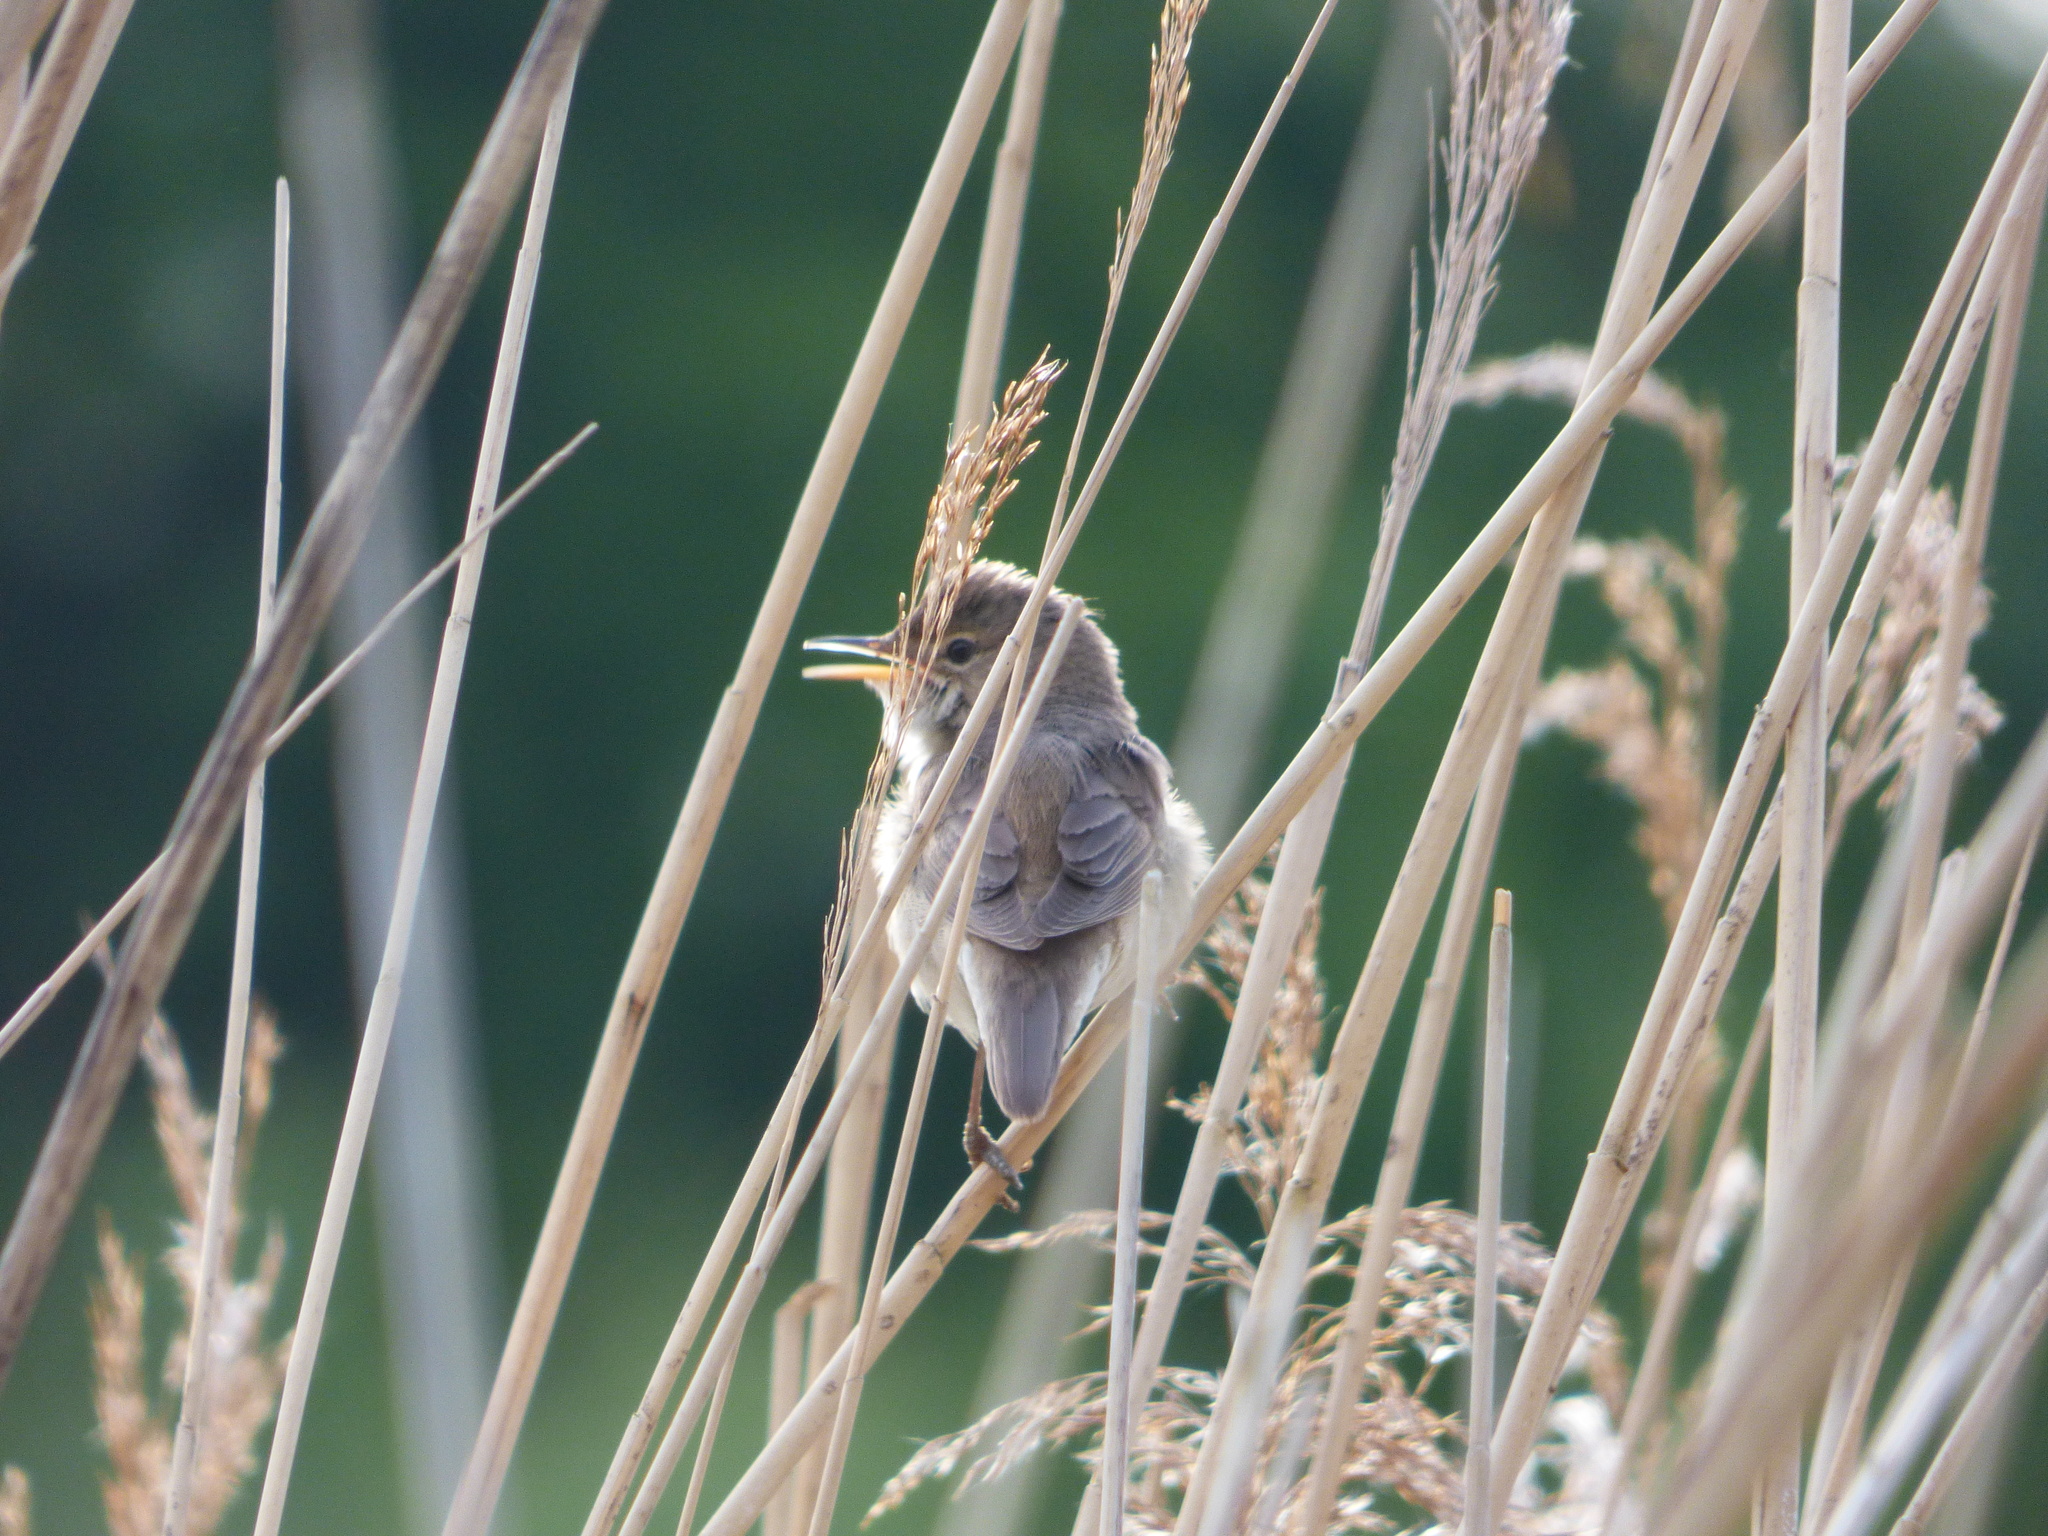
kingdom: Animalia
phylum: Chordata
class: Aves
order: Passeriformes
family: Acrocephalidae
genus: Acrocephalus
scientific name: Acrocephalus scirpaceus
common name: Eurasian reed warbler
